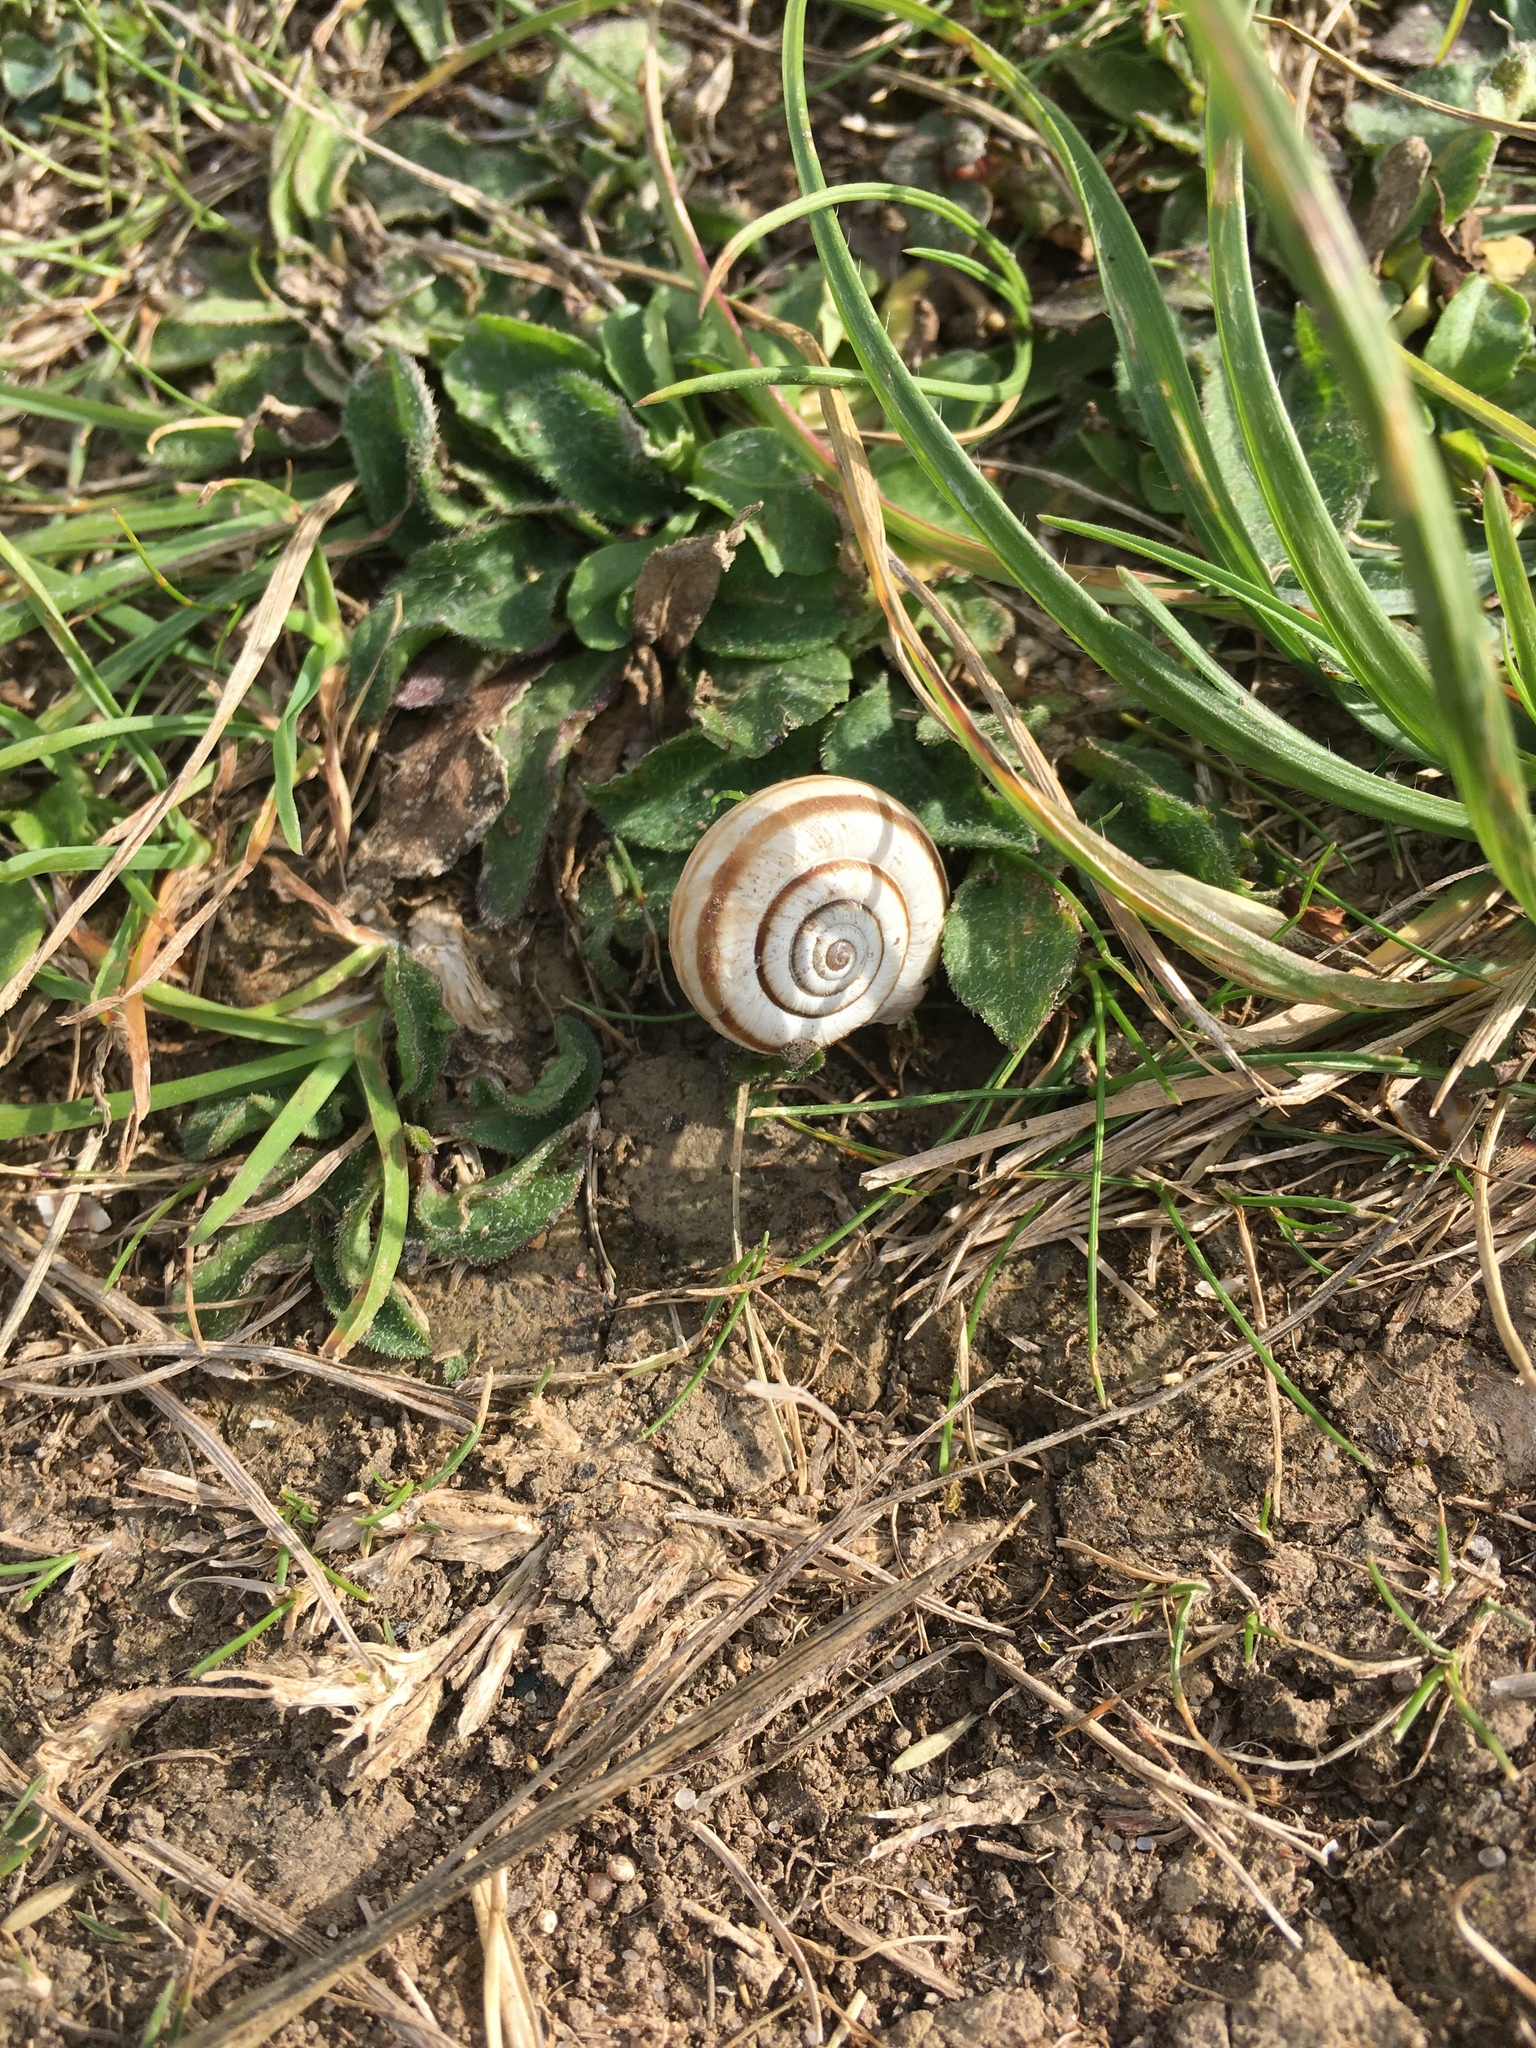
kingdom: Animalia
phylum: Mollusca
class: Gastropoda
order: Stylommatophora
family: Geomitridae
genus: Helicella
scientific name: Helicella itala
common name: Heath snail
